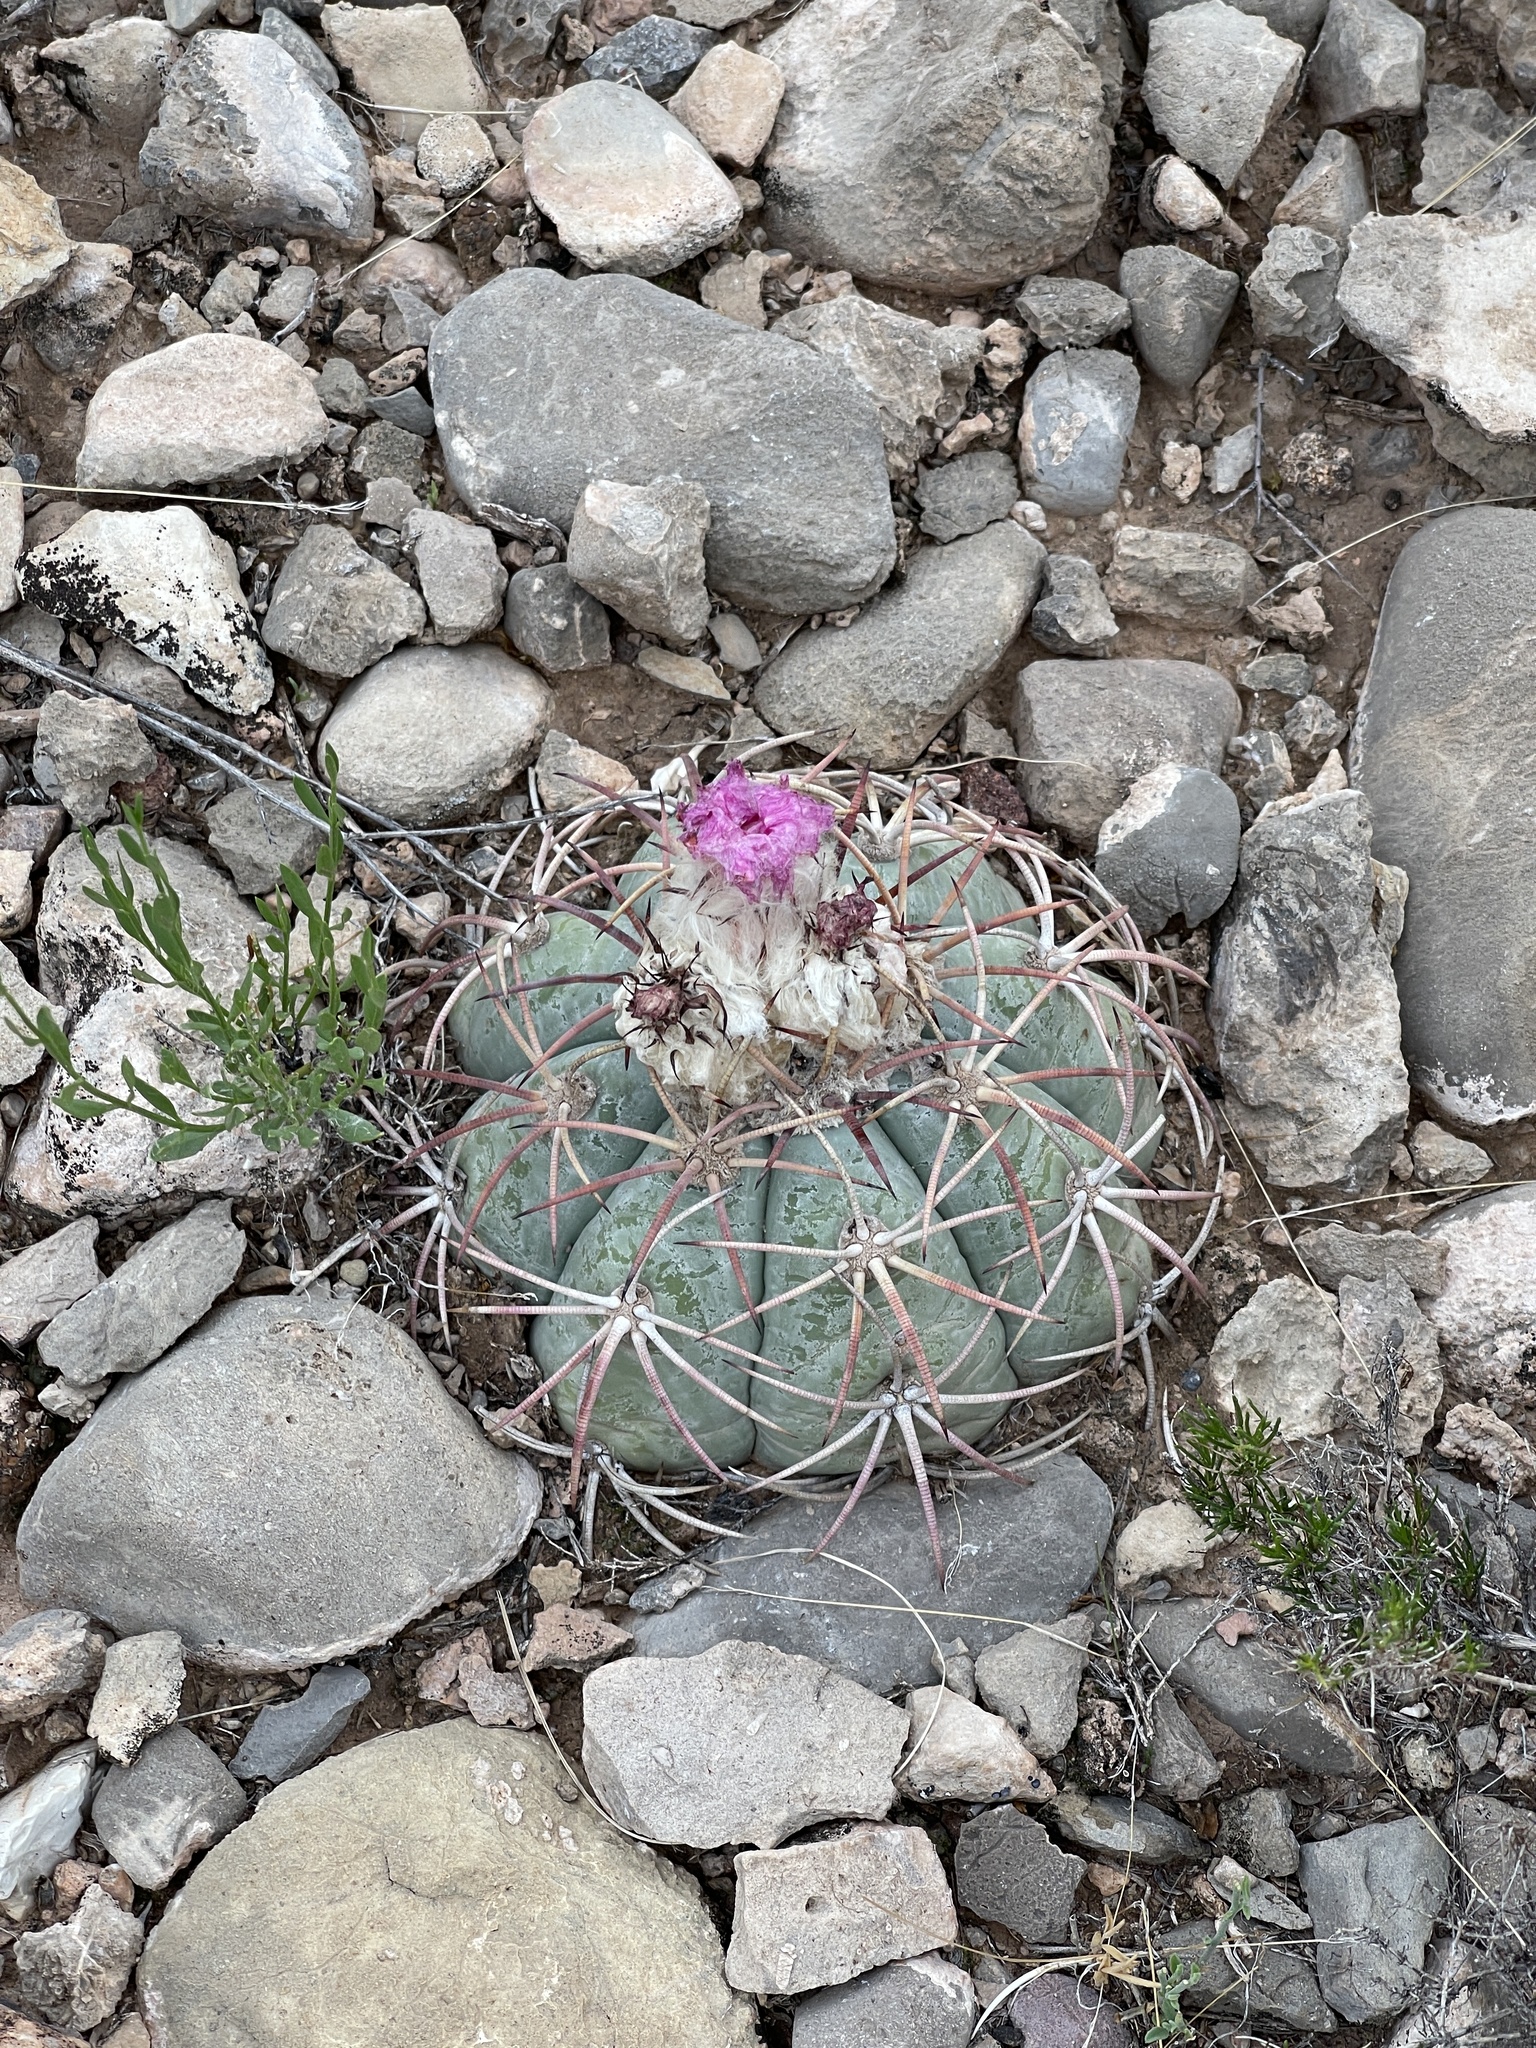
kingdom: Plantae
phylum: Tracheophyta
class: Magnoliopsida
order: Caryophyllales
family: Cactaceae
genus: Echinocactus
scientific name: Echinocactus horizonthalonius
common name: Devilshead
